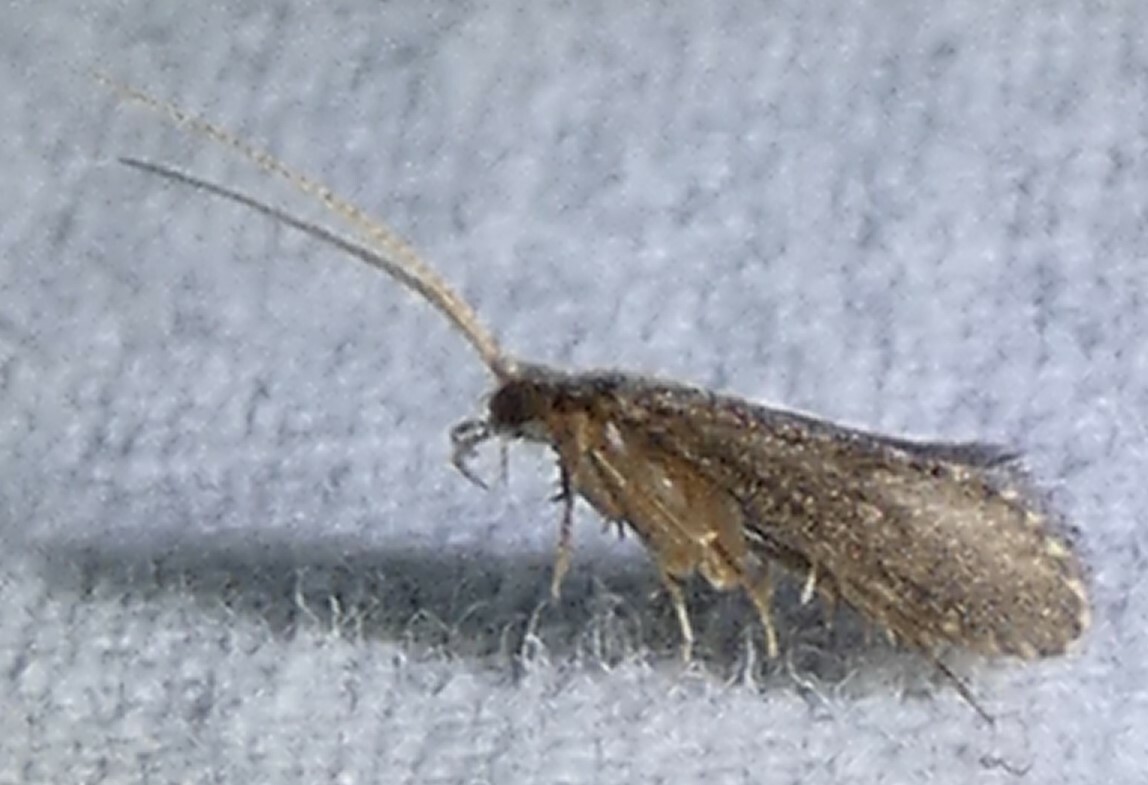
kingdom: Animalia
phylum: Arthropoda
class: Insecta
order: Trichoptera
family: Polycentropodidae
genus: Cyrnellus
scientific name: Cyrnellus fraternus
